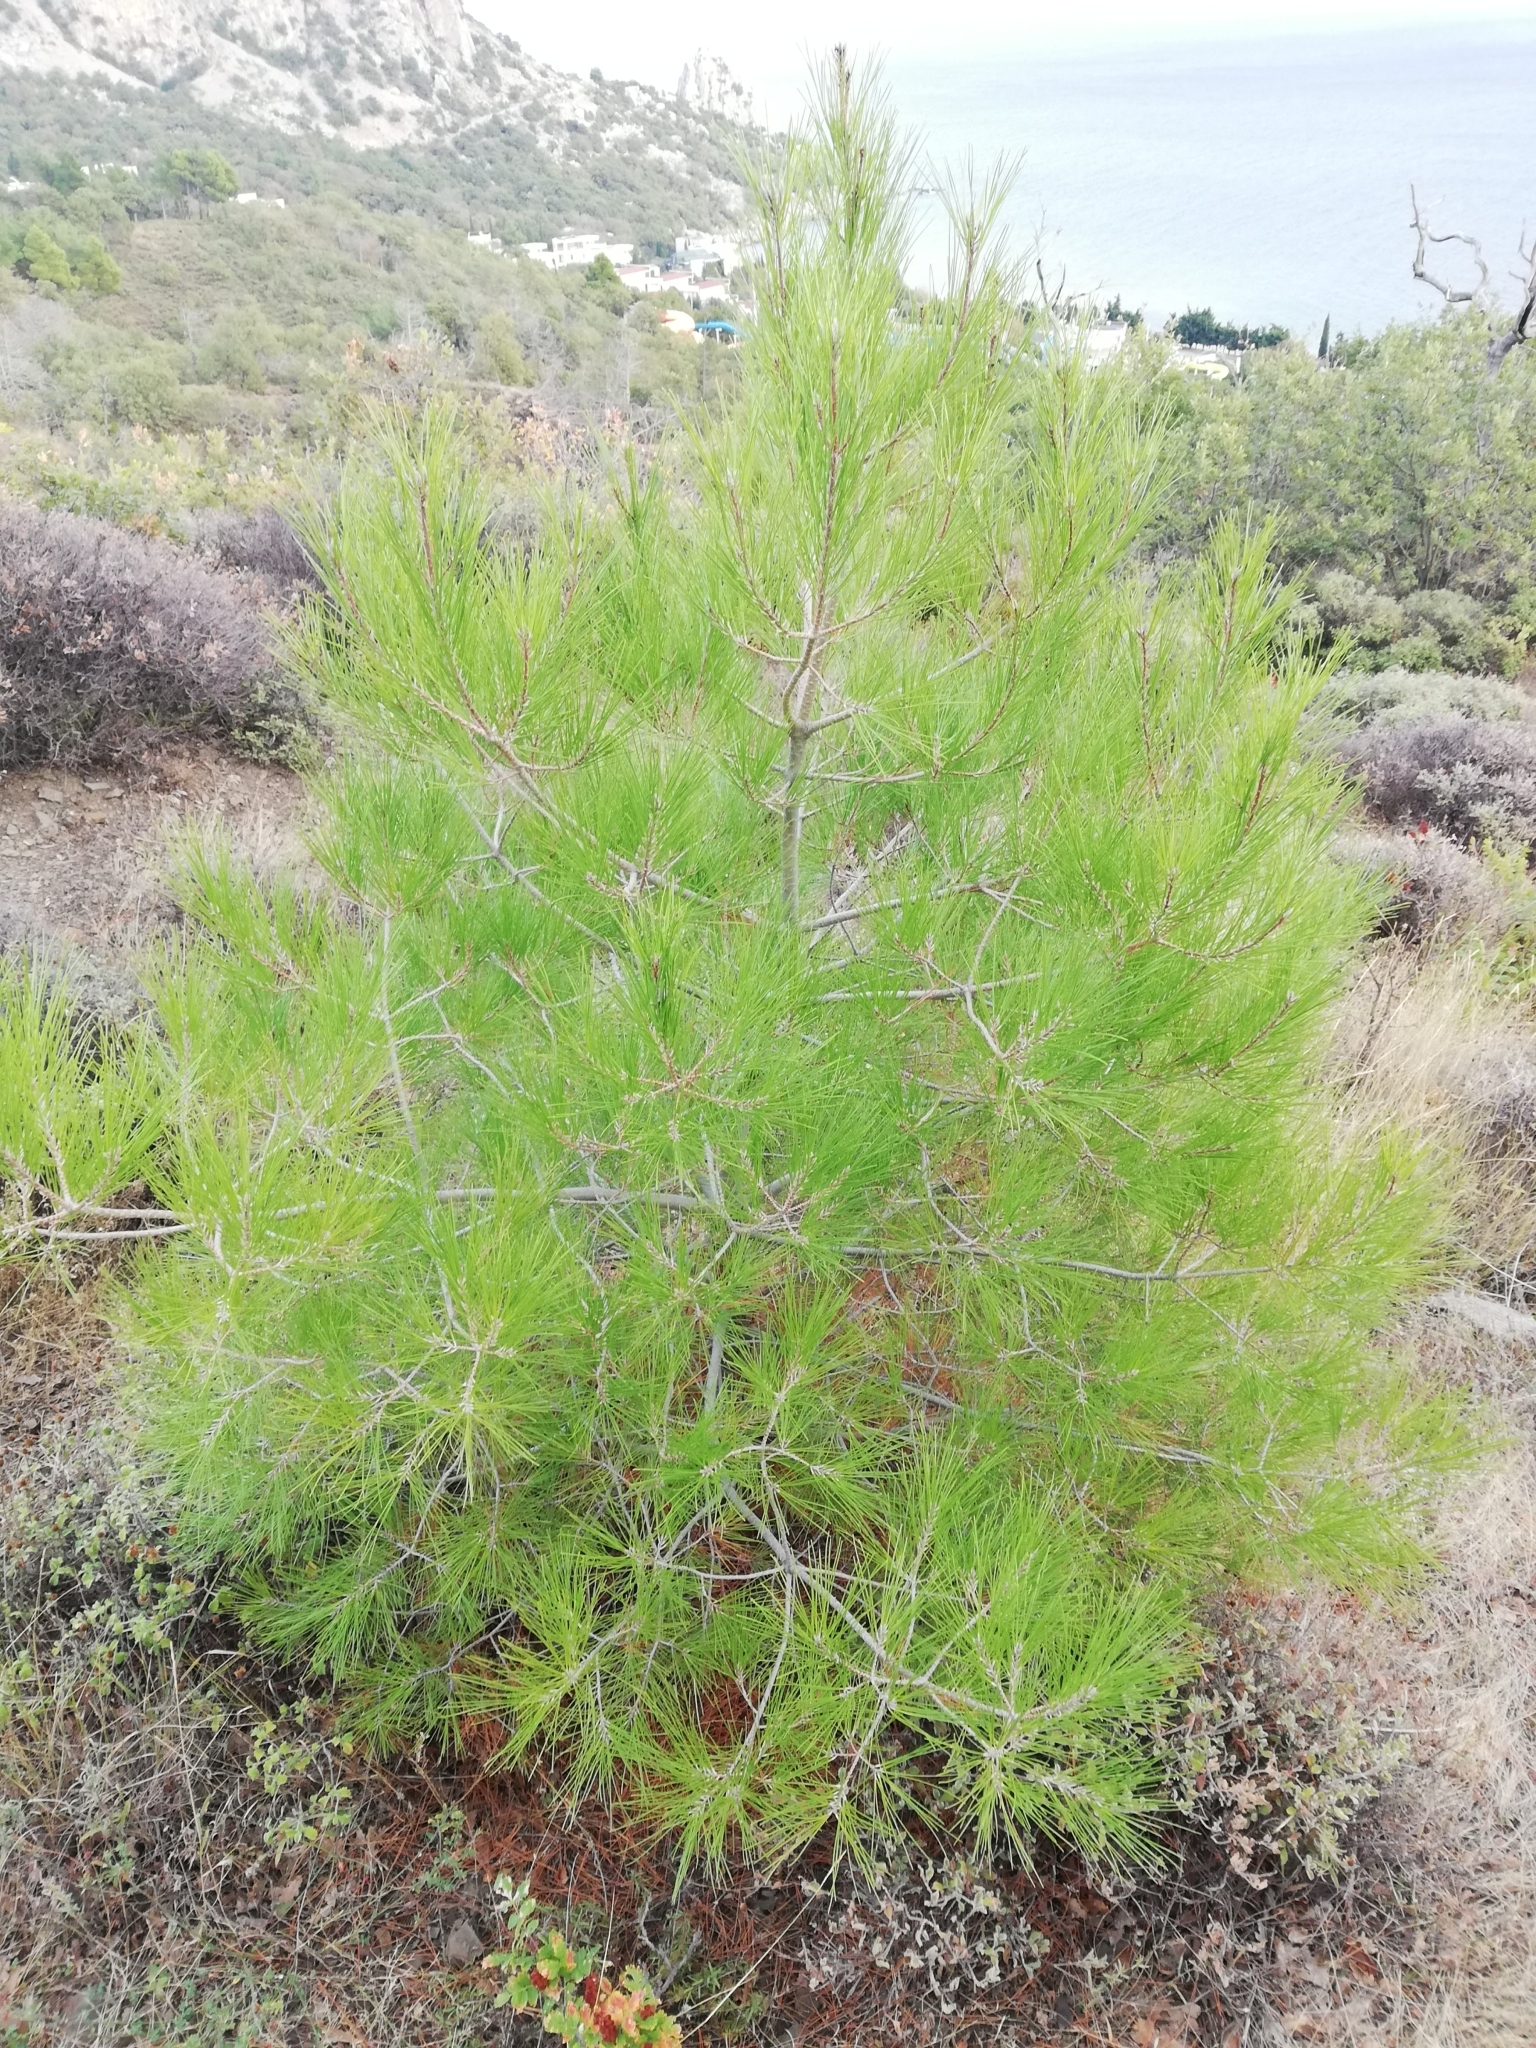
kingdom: Plantae
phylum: Tracheophyta
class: Pinopsida
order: Pinales
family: Pinaceae
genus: Pinus
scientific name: Pinus brutia
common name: Turkish pine
